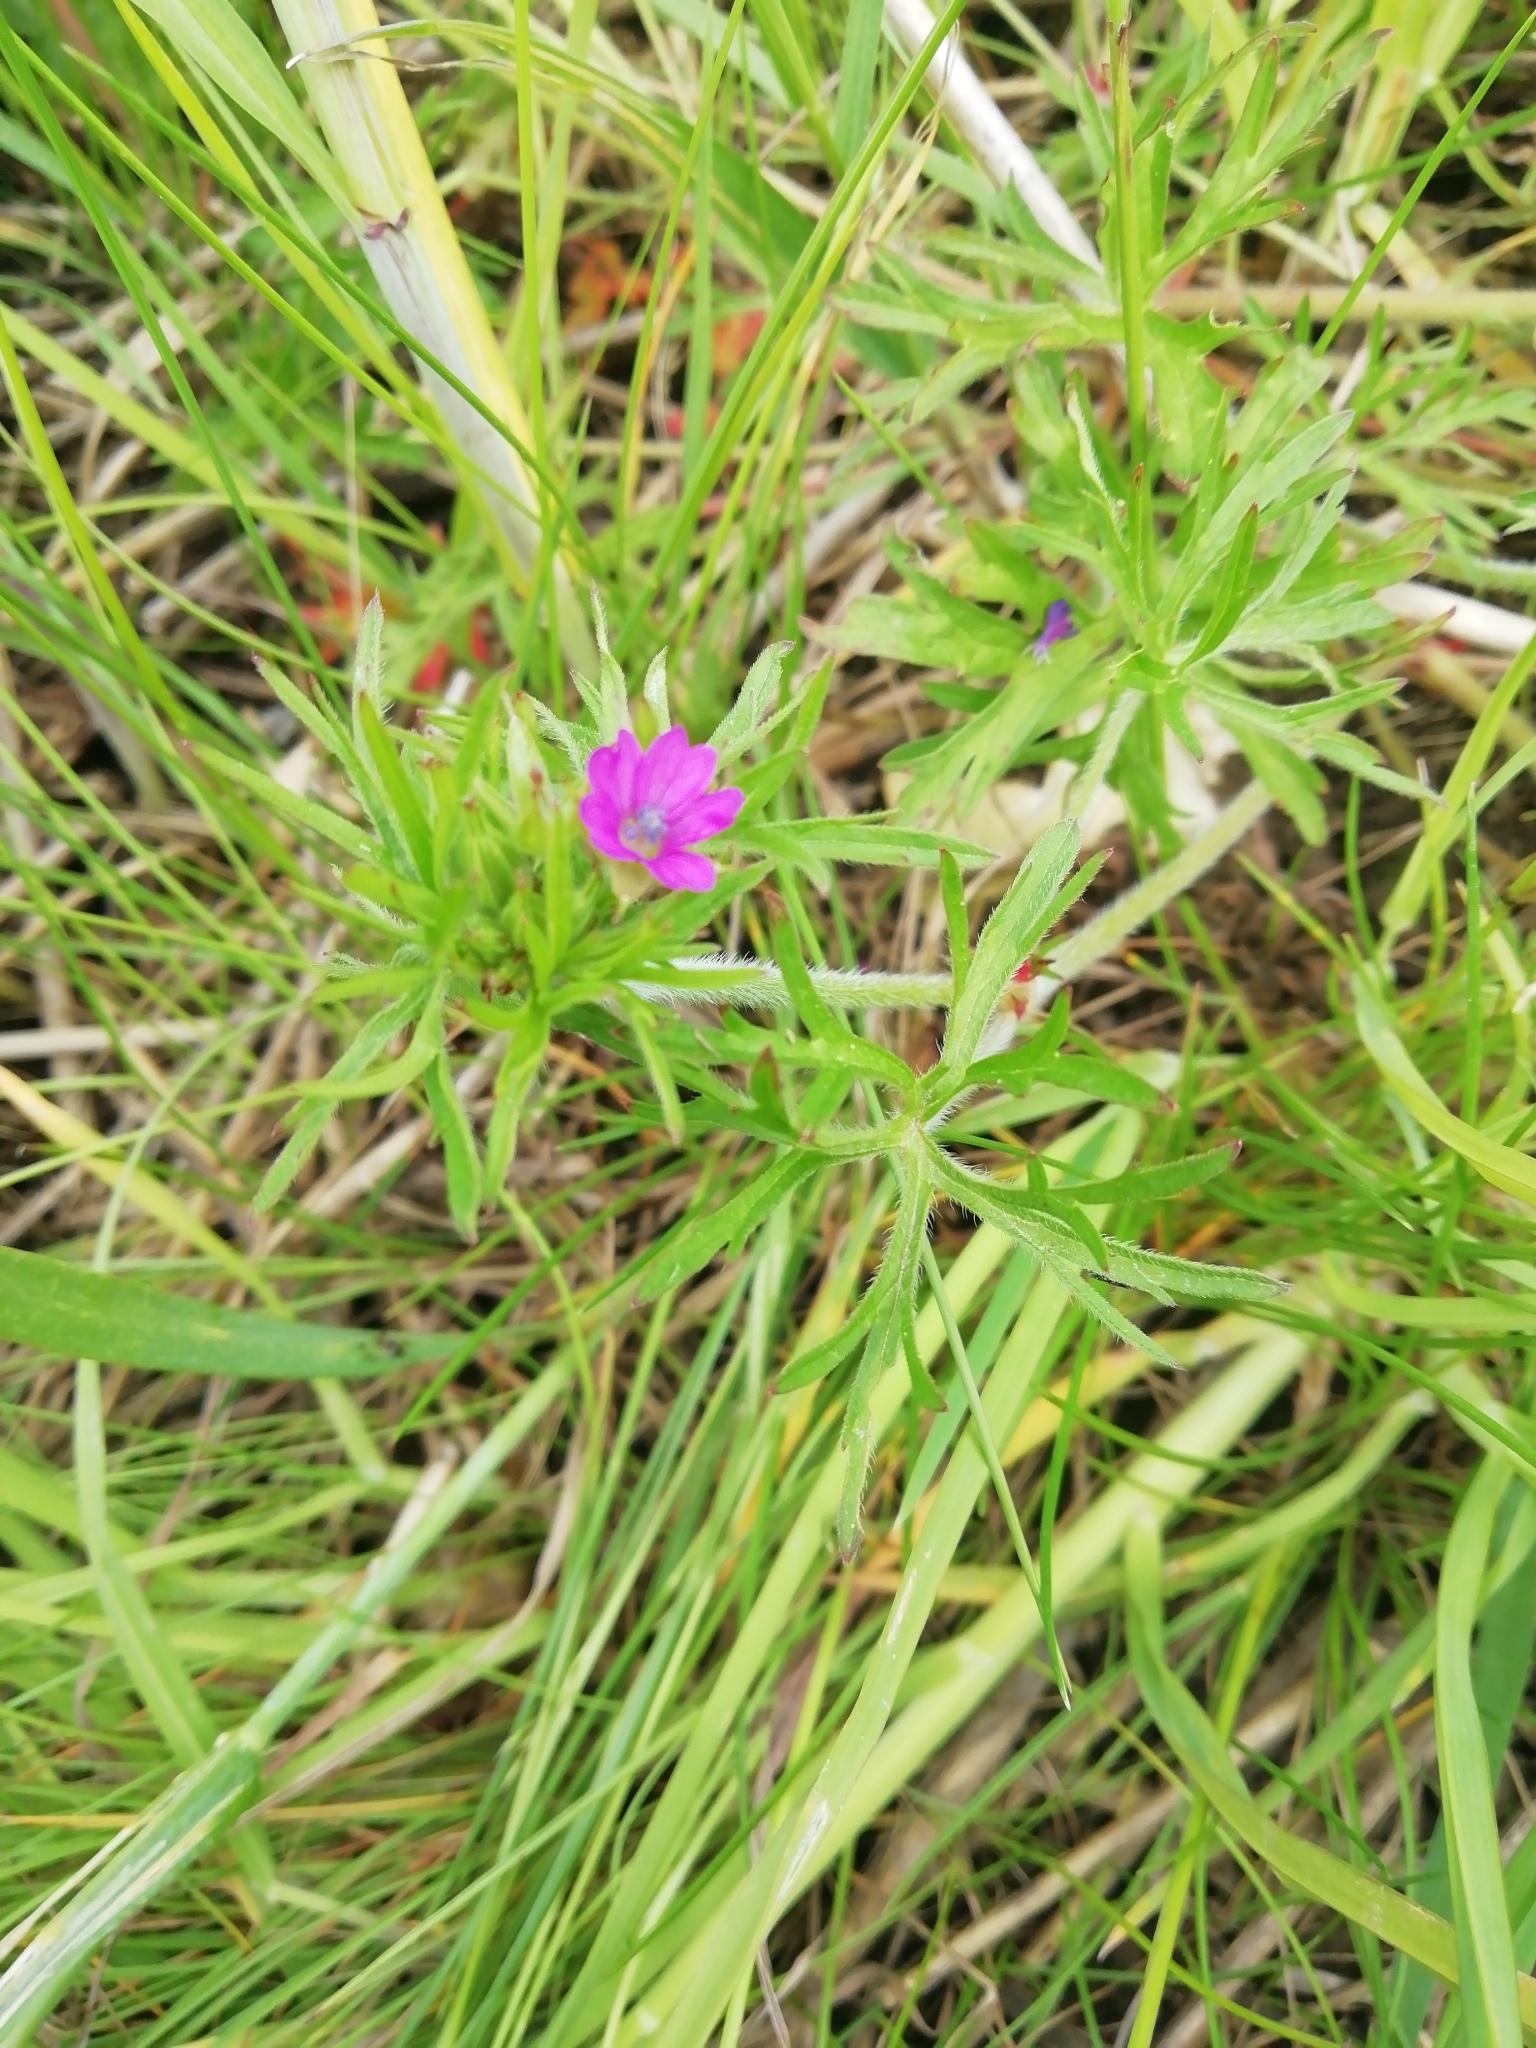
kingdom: Plantae
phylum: Tracheophyta
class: Magnoliopsida
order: Geraniales
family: Geraniaceae
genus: Geranium
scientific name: Geranium dissectum
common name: Cut-leaved crane's-bill
